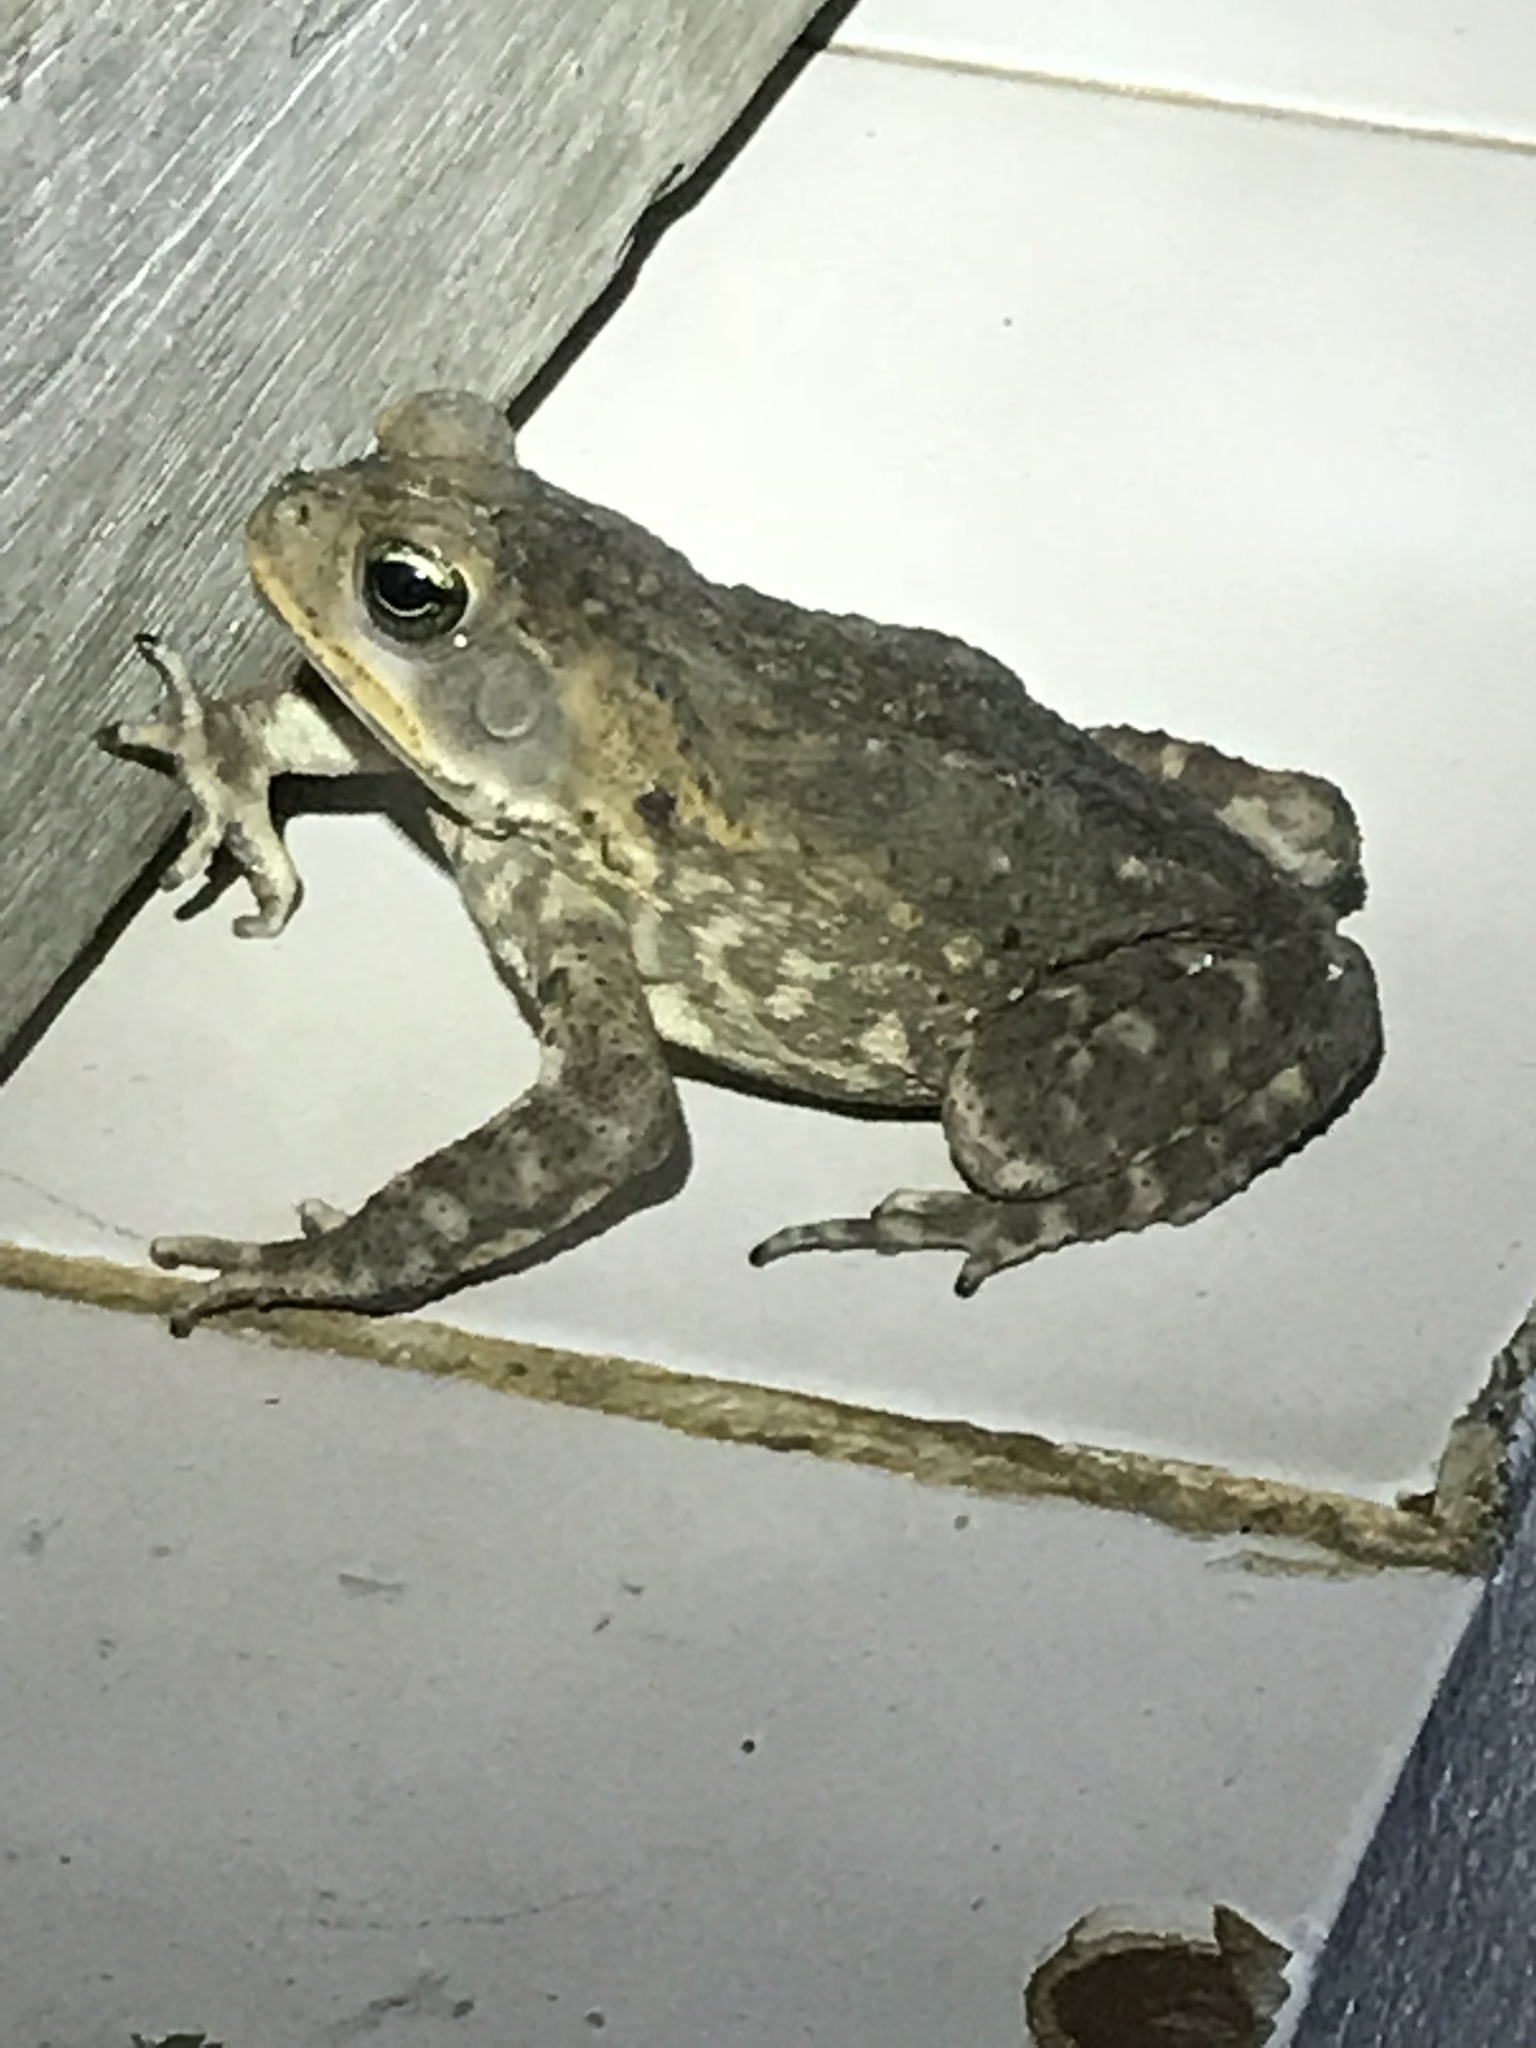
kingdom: Animalia
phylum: Chordata
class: Amphibia
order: Anura
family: Bufonidae
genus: Rhinella
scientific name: Rhinella horribilis
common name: Mesoamerican cane toad
